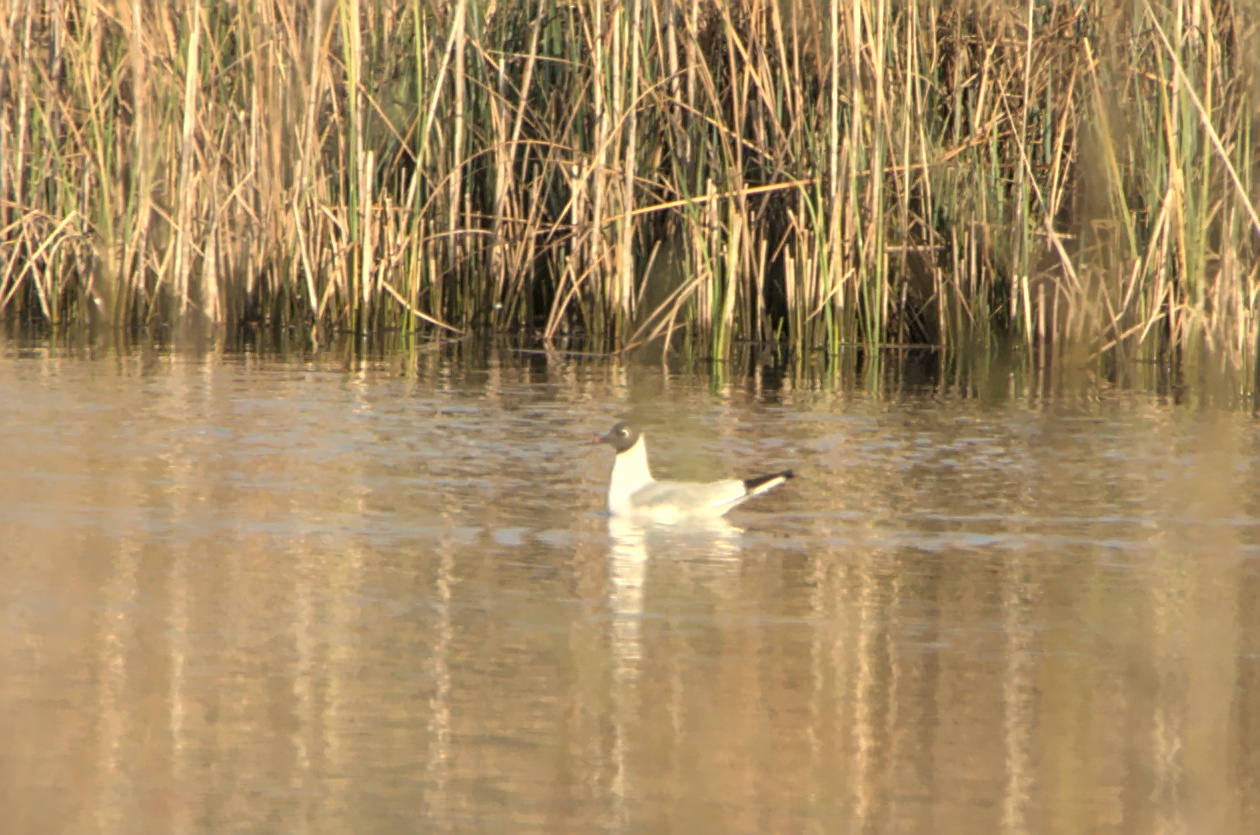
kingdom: Animalia
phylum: Chordata
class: Aves
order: Charadriiformes
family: Laridae
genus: Chroicocephalus
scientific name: Chroicocephalus ridibundus
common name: Black-headed gull
